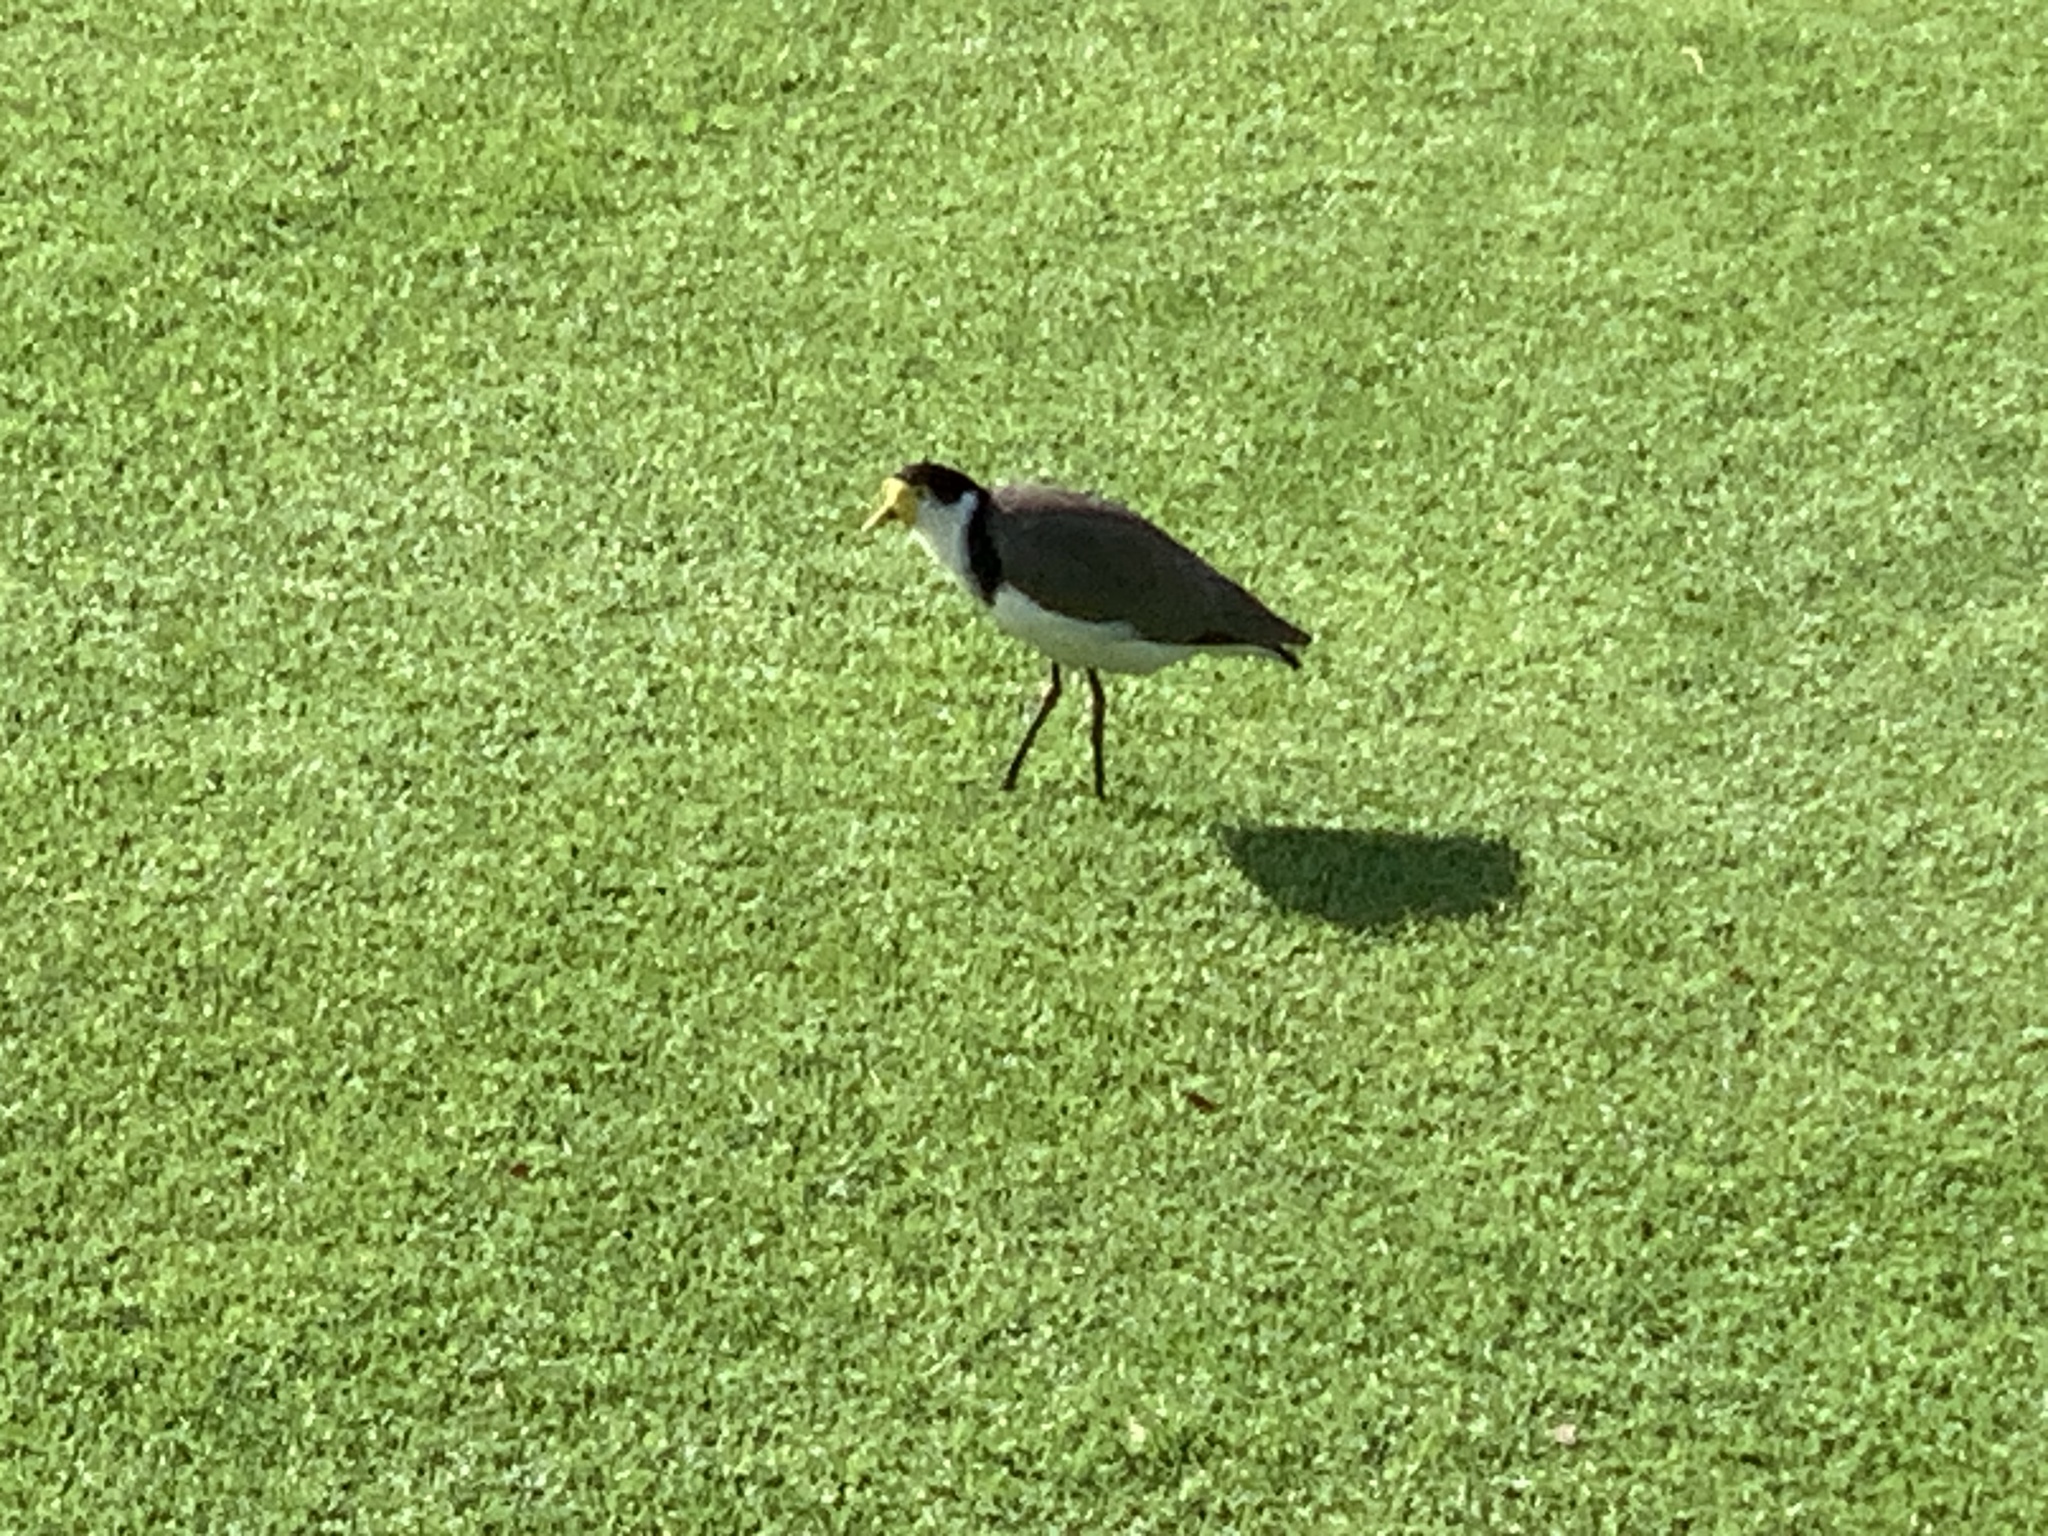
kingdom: Animalia
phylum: Chordata
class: Aves
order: Charadriiformes
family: Charadriidae
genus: Vanellus
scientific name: Vanellus miles
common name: Masked lapwing
